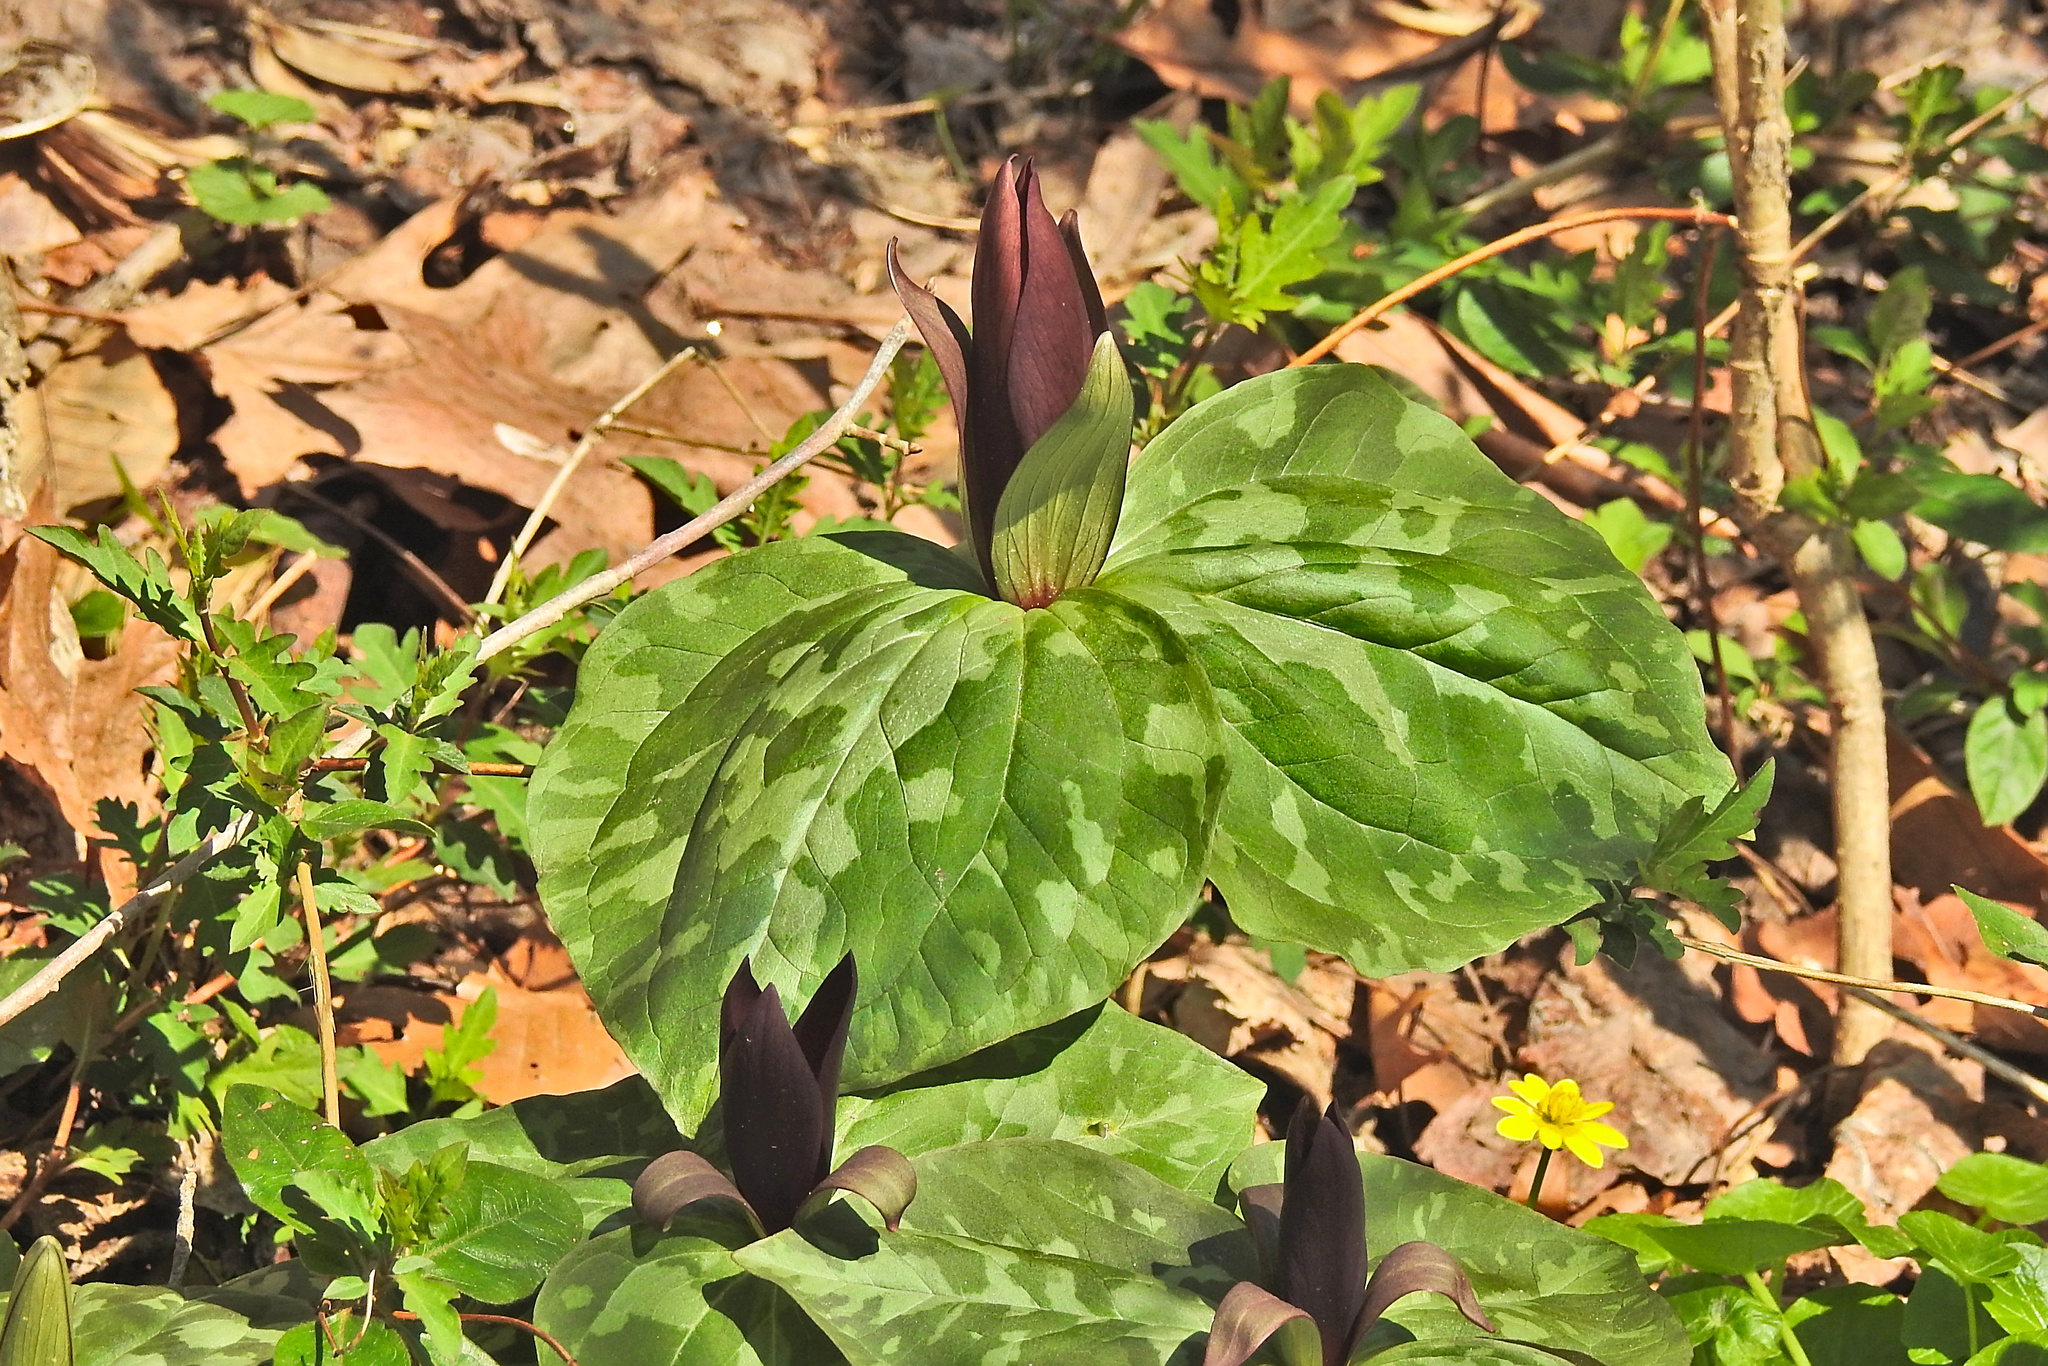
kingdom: Plantae
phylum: Tracheophyta
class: Liliopsida
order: Liliales
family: Melanthiaceae
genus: Trillium
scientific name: Trillium cuneatum
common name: Cuneate trillium
